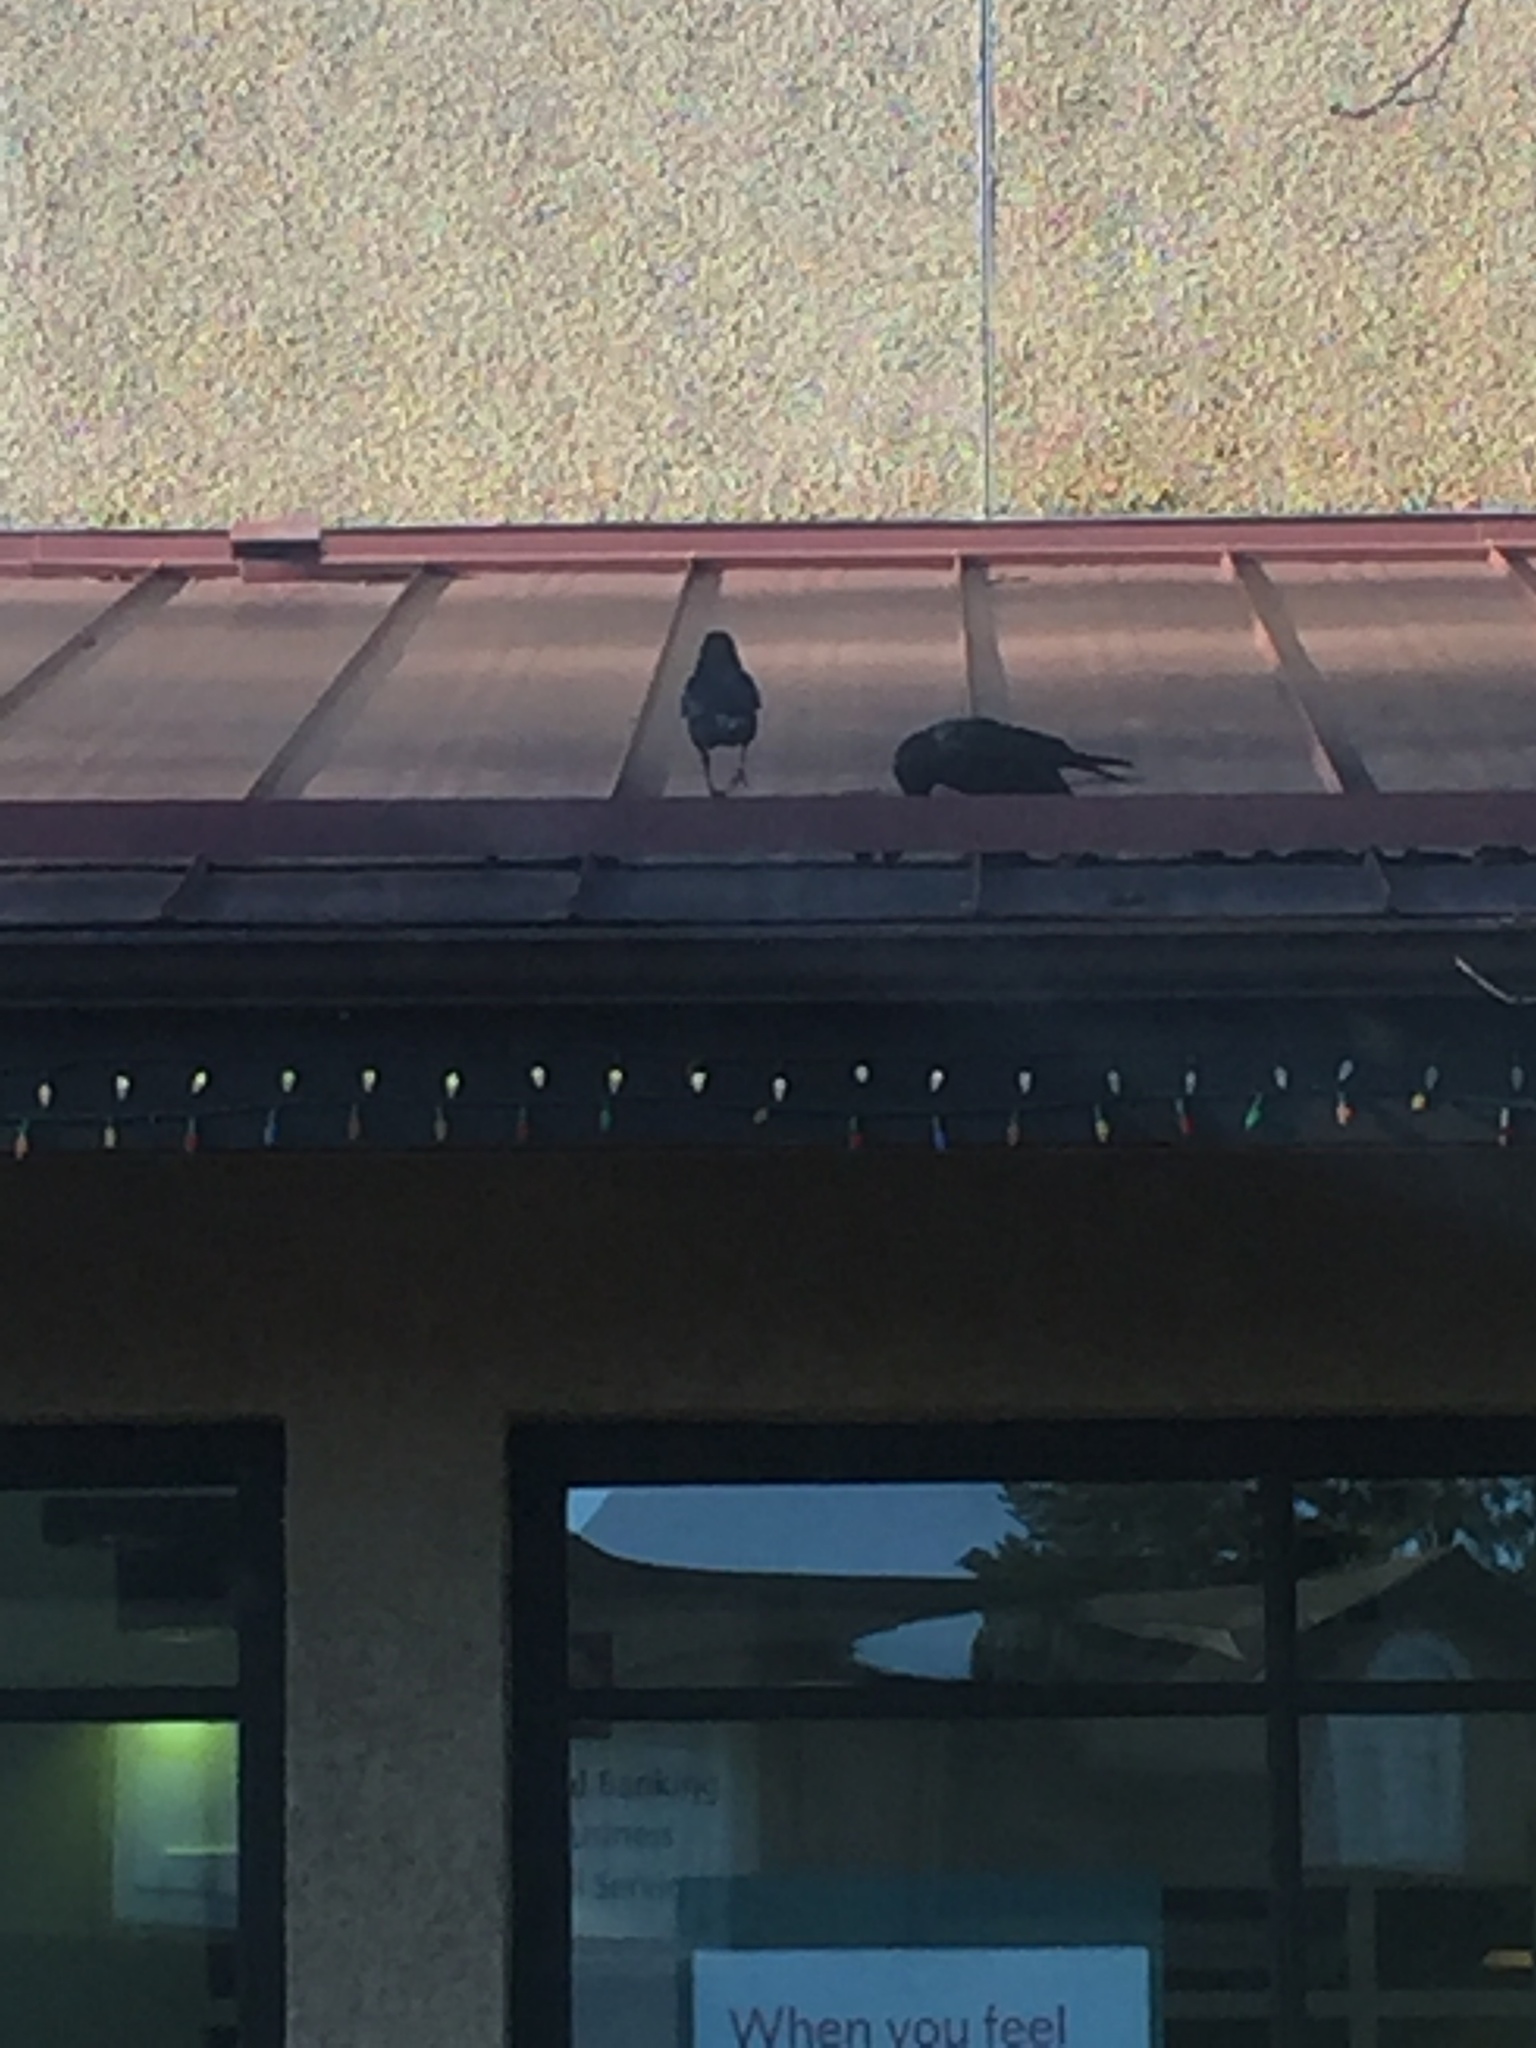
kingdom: Animalia
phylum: Chordata
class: Aves
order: Passeriformes
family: Corvidae
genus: Corvus
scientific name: Corvus brachyrhynchos
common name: American crow
